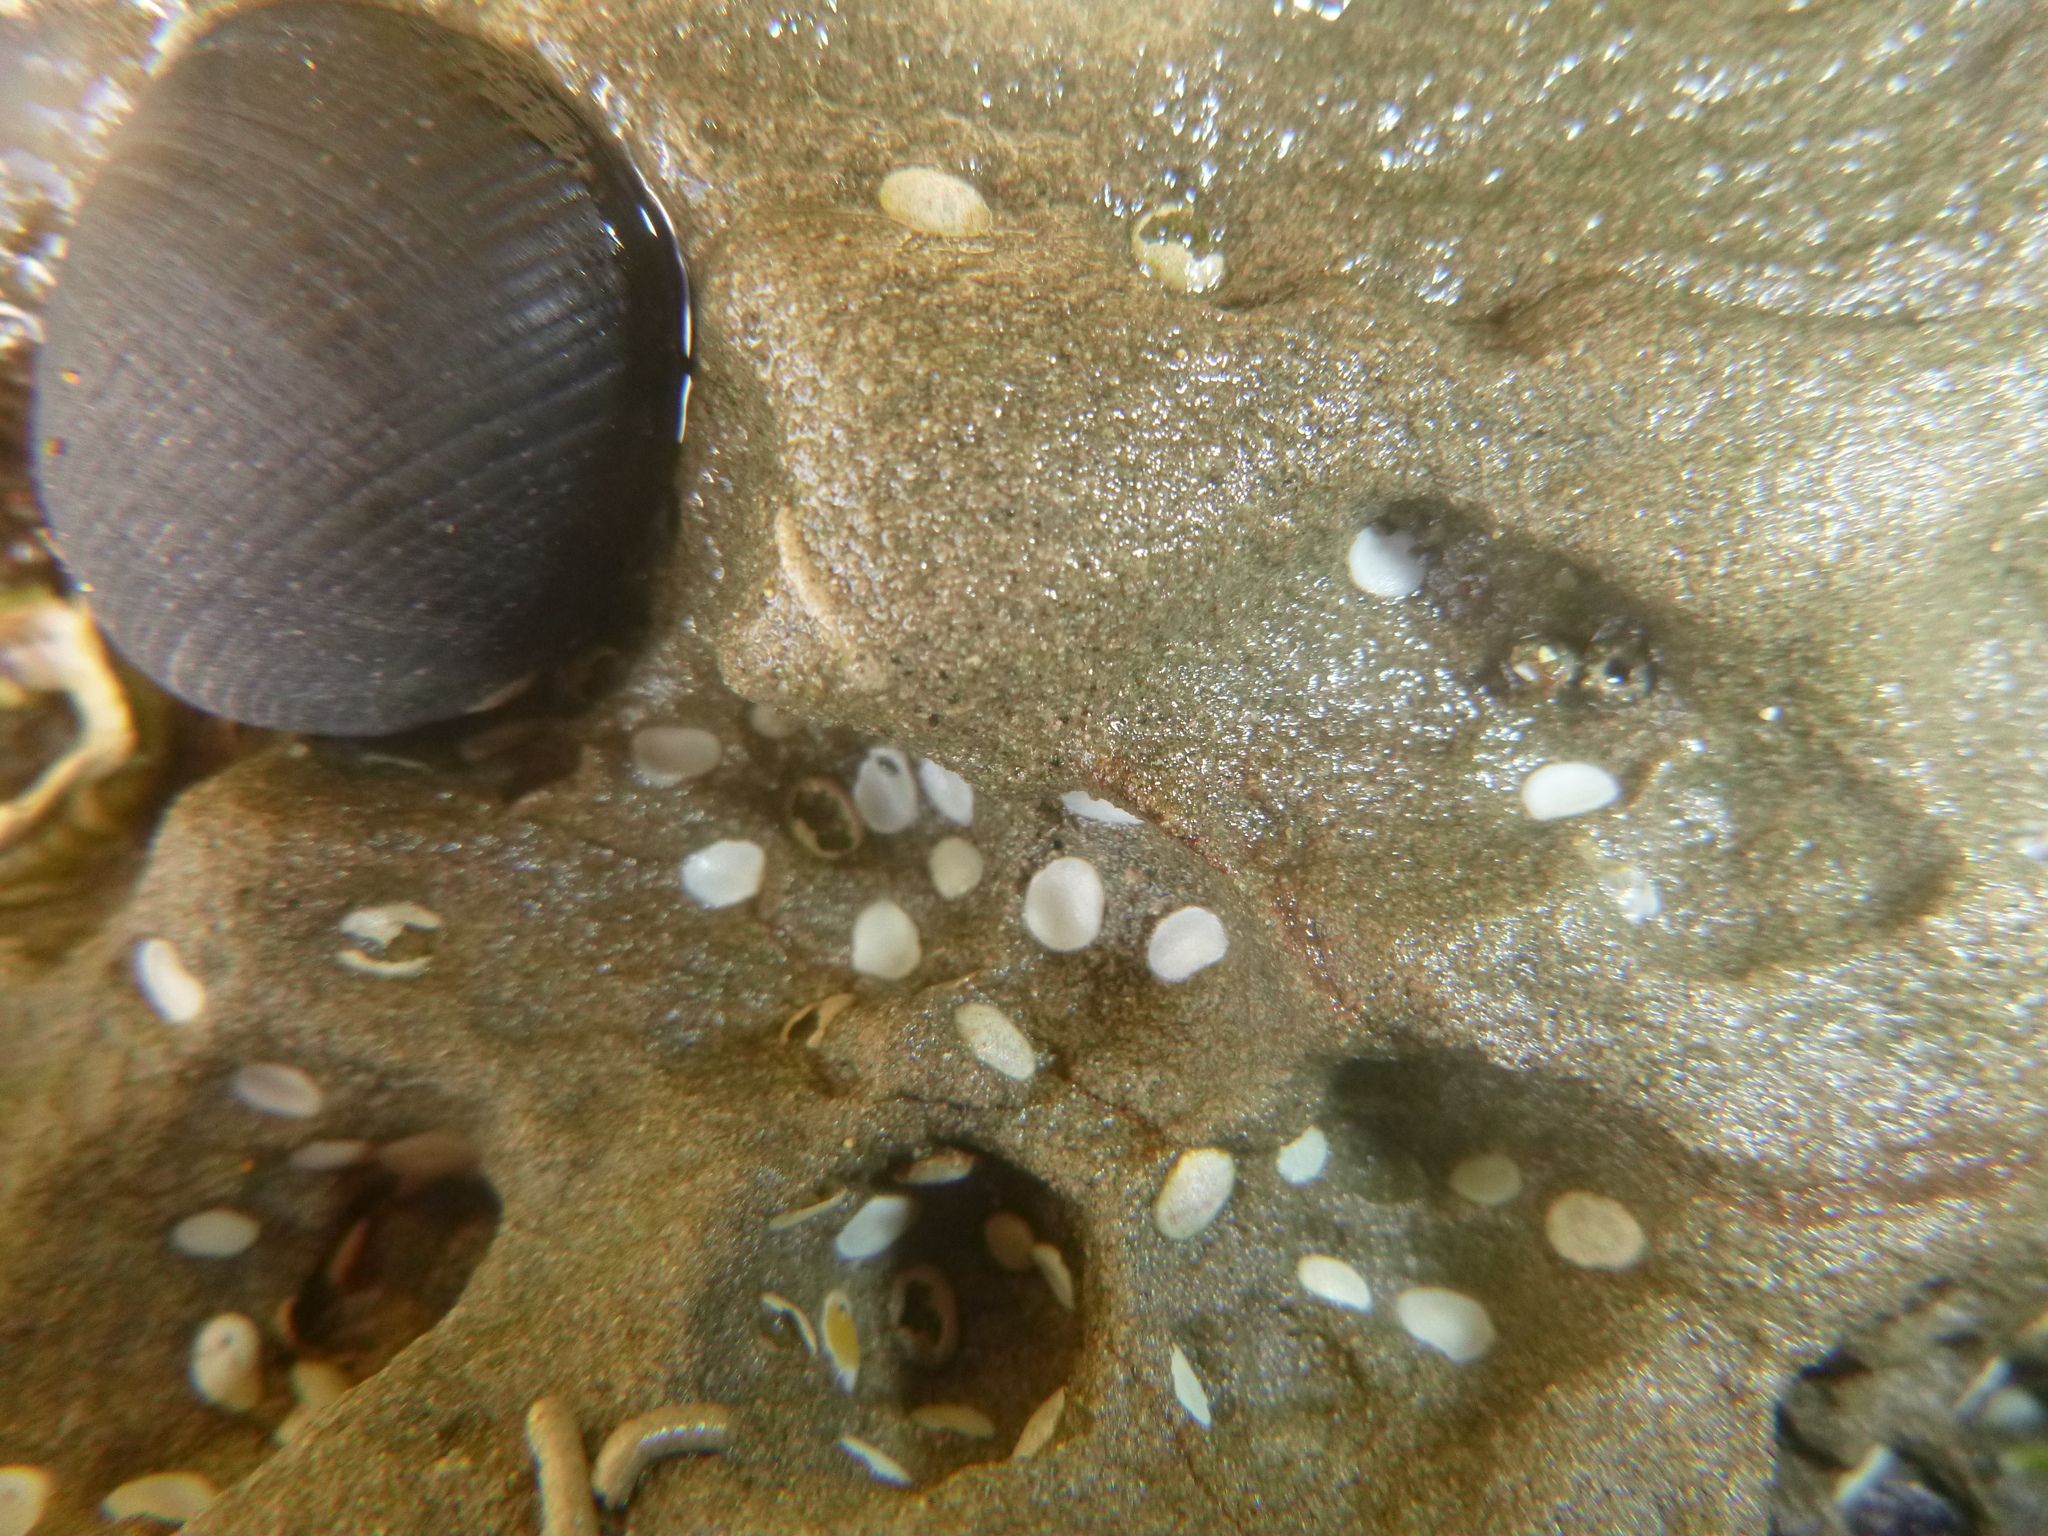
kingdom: Animalia
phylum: Mollusca
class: Gastropoda
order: Cycloneritida
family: Neritidae
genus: Nerita
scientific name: Nerita melanotragus
